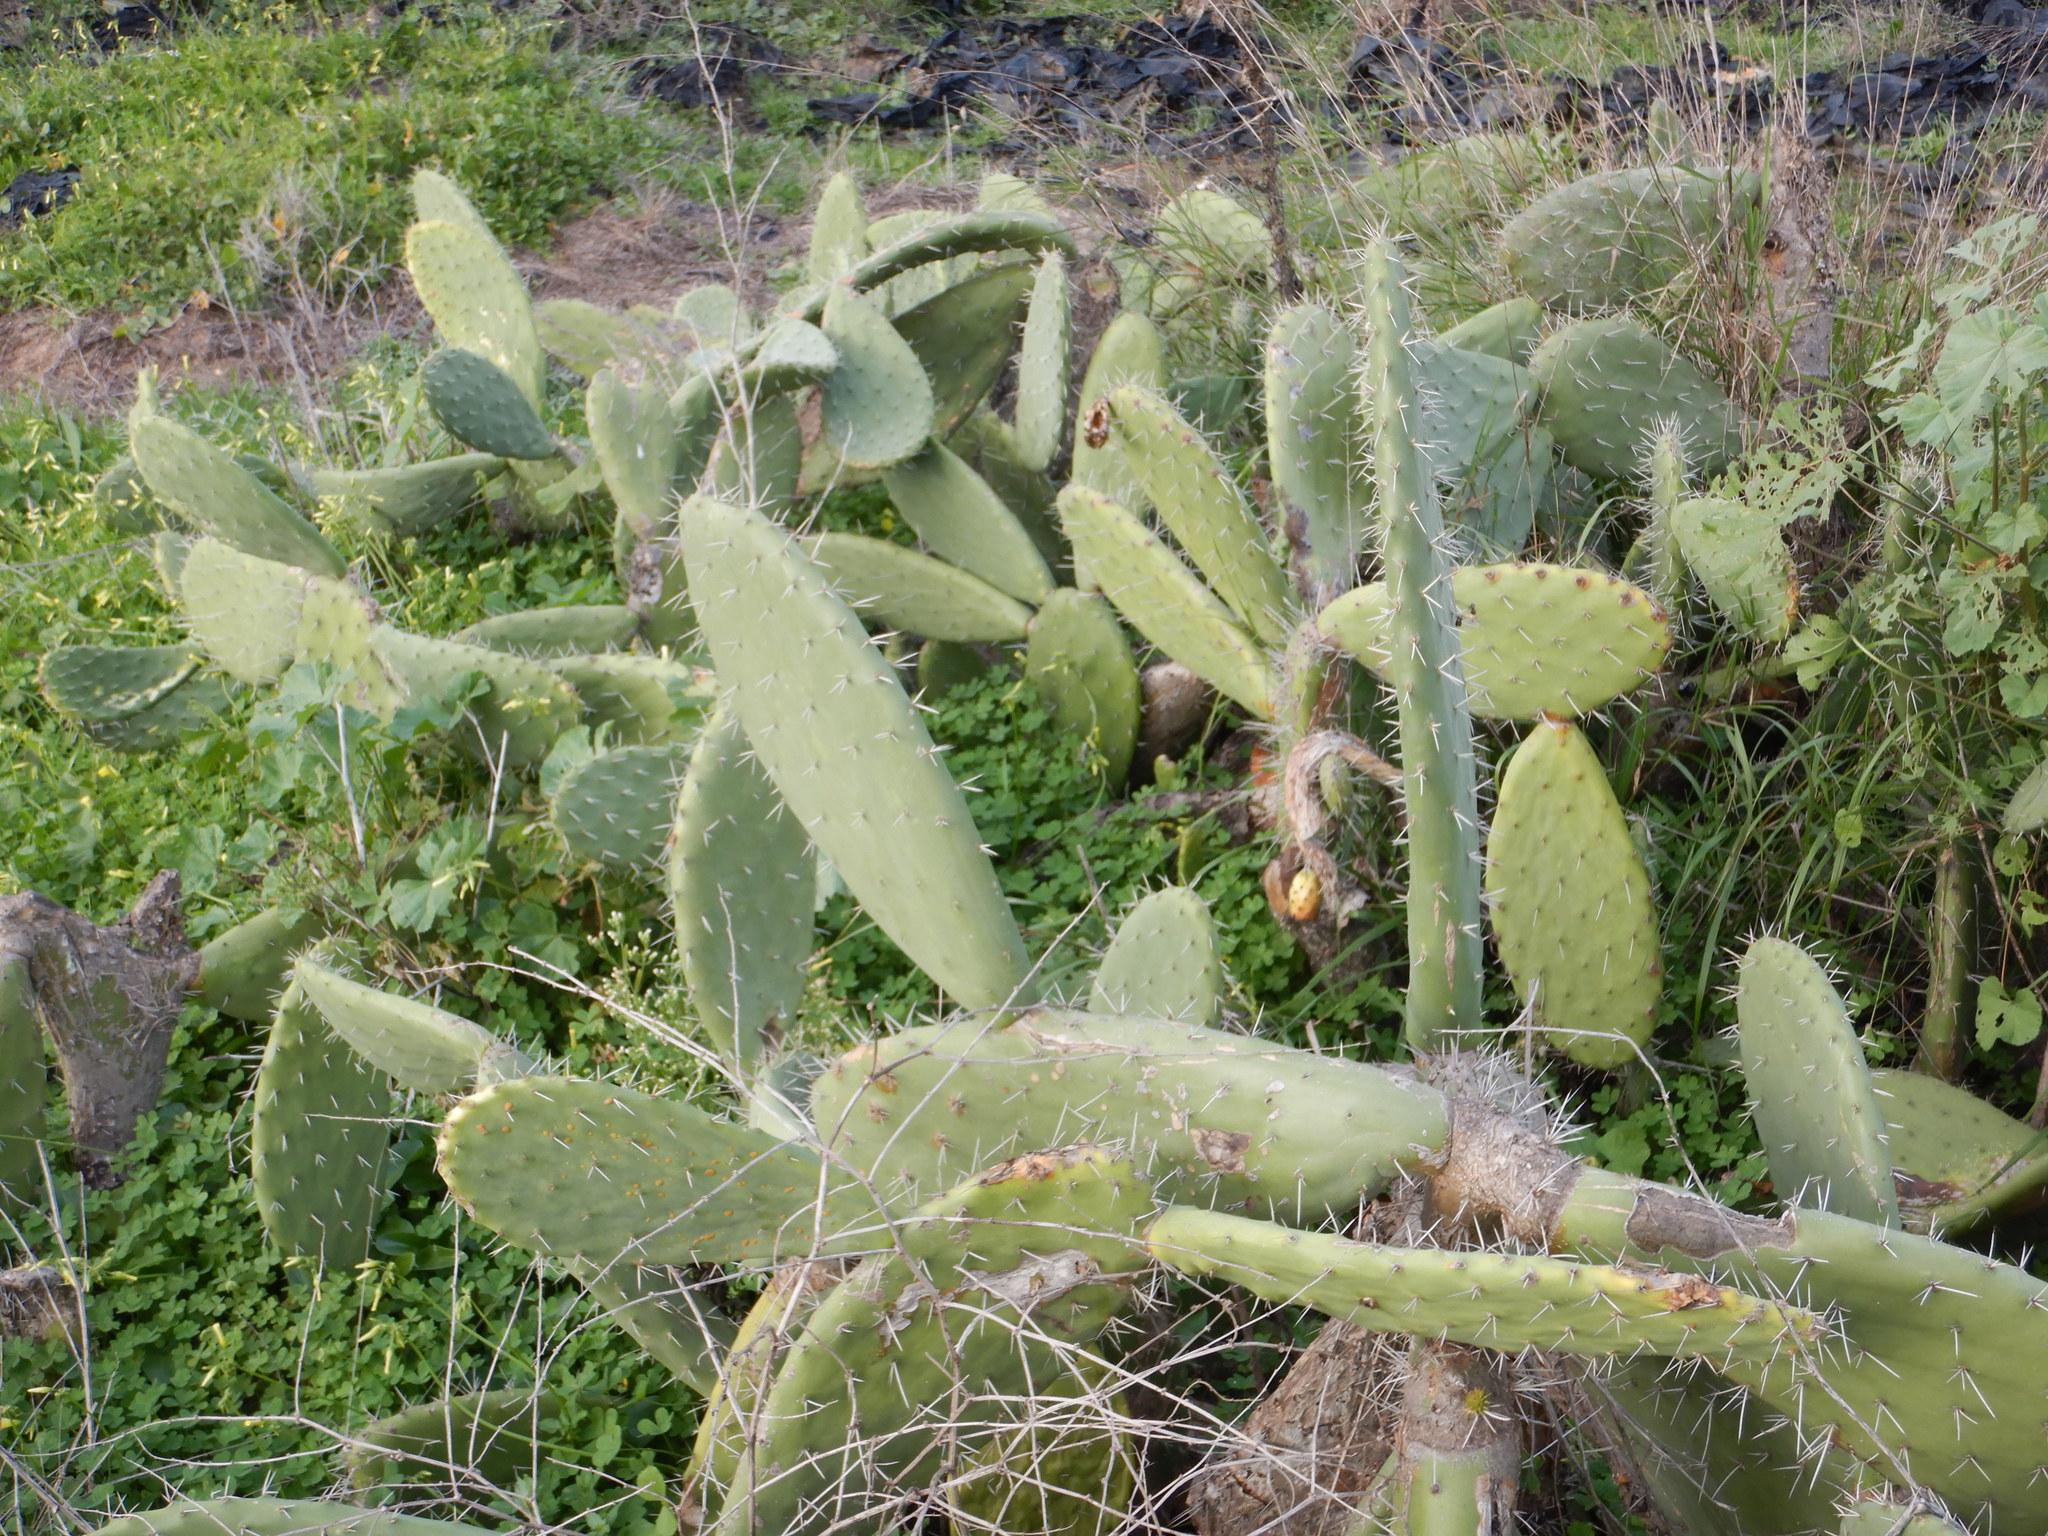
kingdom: Plantae
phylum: Tracheophyta
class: Magnoliopsida
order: Caryophyllales
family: Cactaceae
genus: Opuntia
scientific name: Opuntia ficus-indica
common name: Barbary fig
